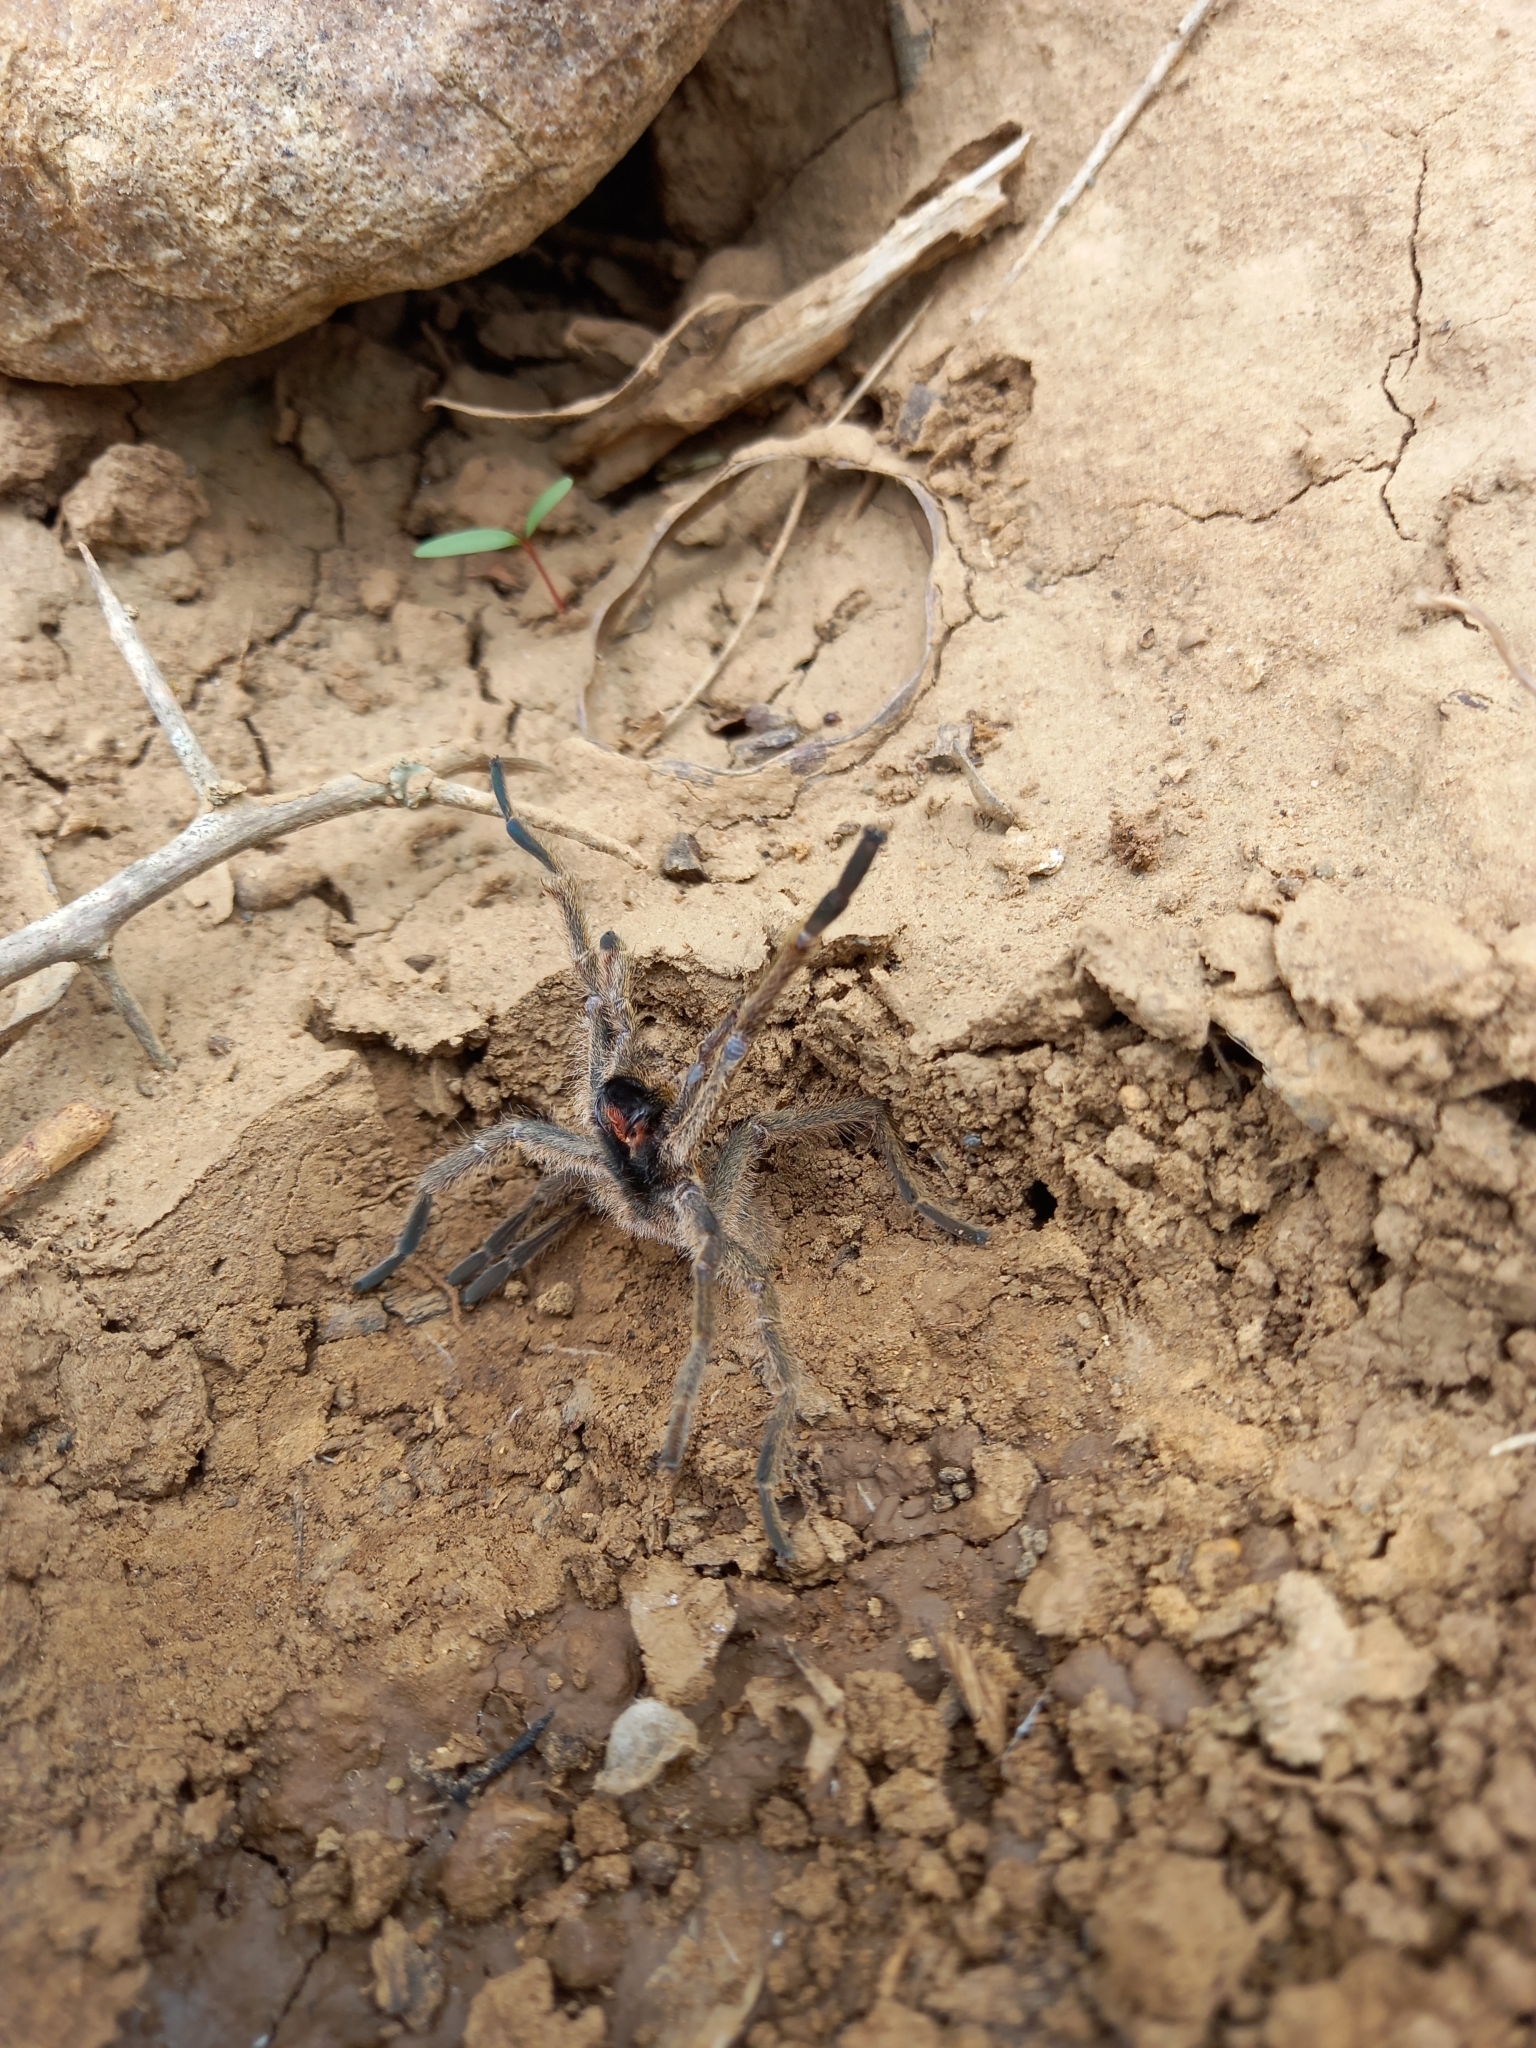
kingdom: Animalia
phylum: Arthropoda
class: Arachnida
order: Araneae
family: Theraphosidae
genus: Harpactirella
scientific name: Harpactirella magna
